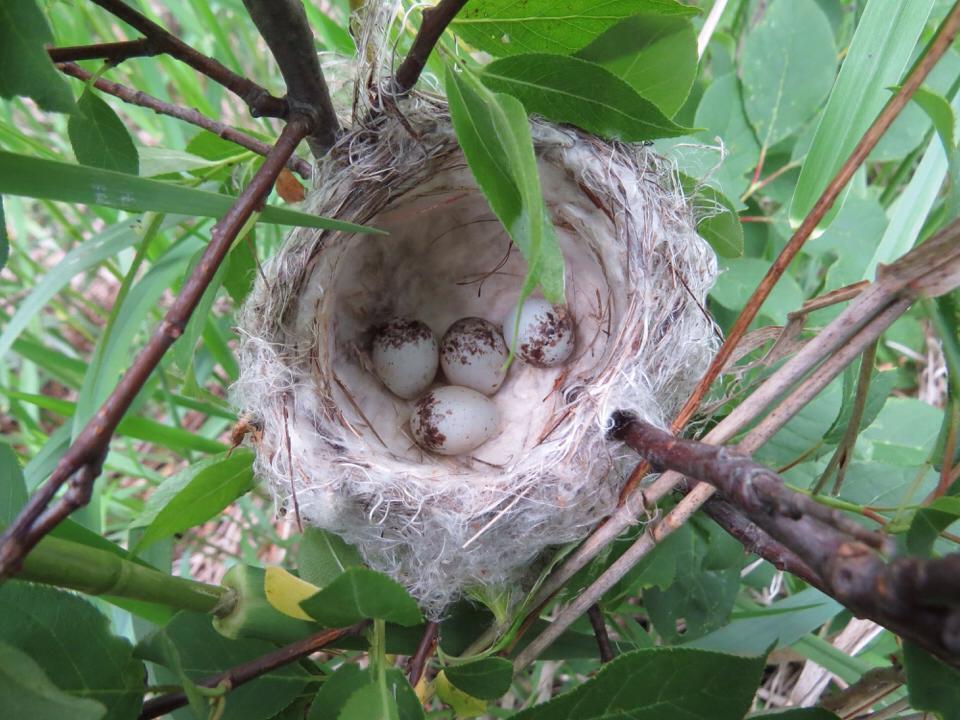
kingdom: Animalia
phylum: Chordata
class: Aves
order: Passeriformes
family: Parulidae
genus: Setophaga
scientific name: Setophaga petechia
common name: Yellow warbler
